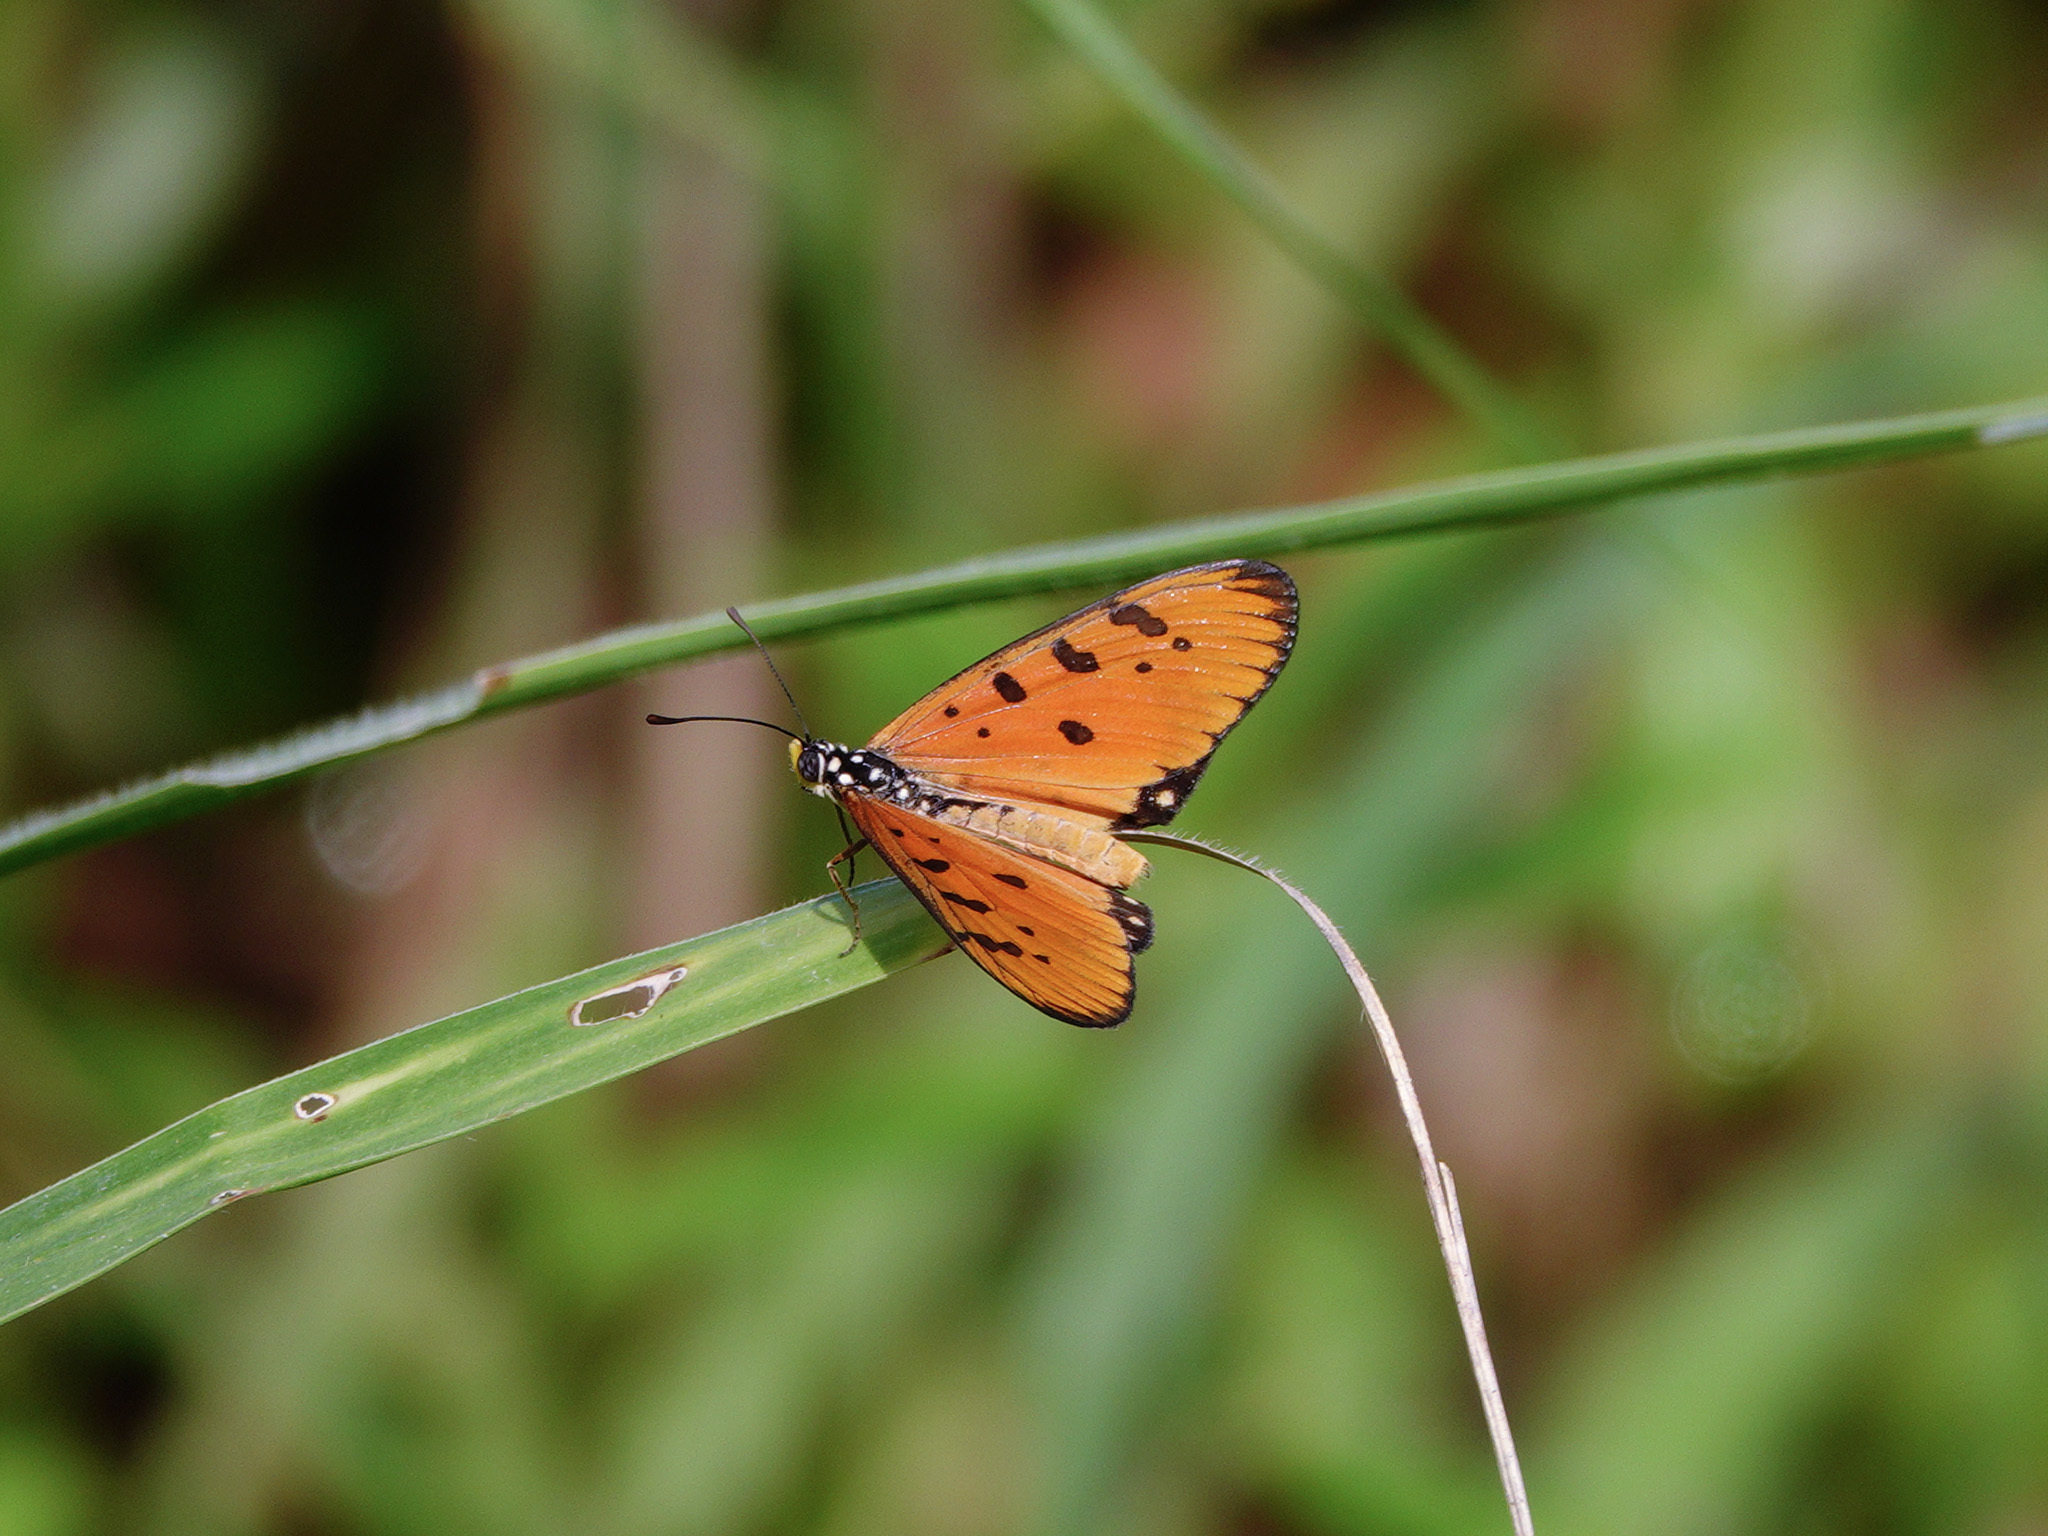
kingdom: Animalia
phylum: Arthropoda
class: Insecta
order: Lepidoptera
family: Nymphalidae
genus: Acraea
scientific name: Acraea terpsicore
